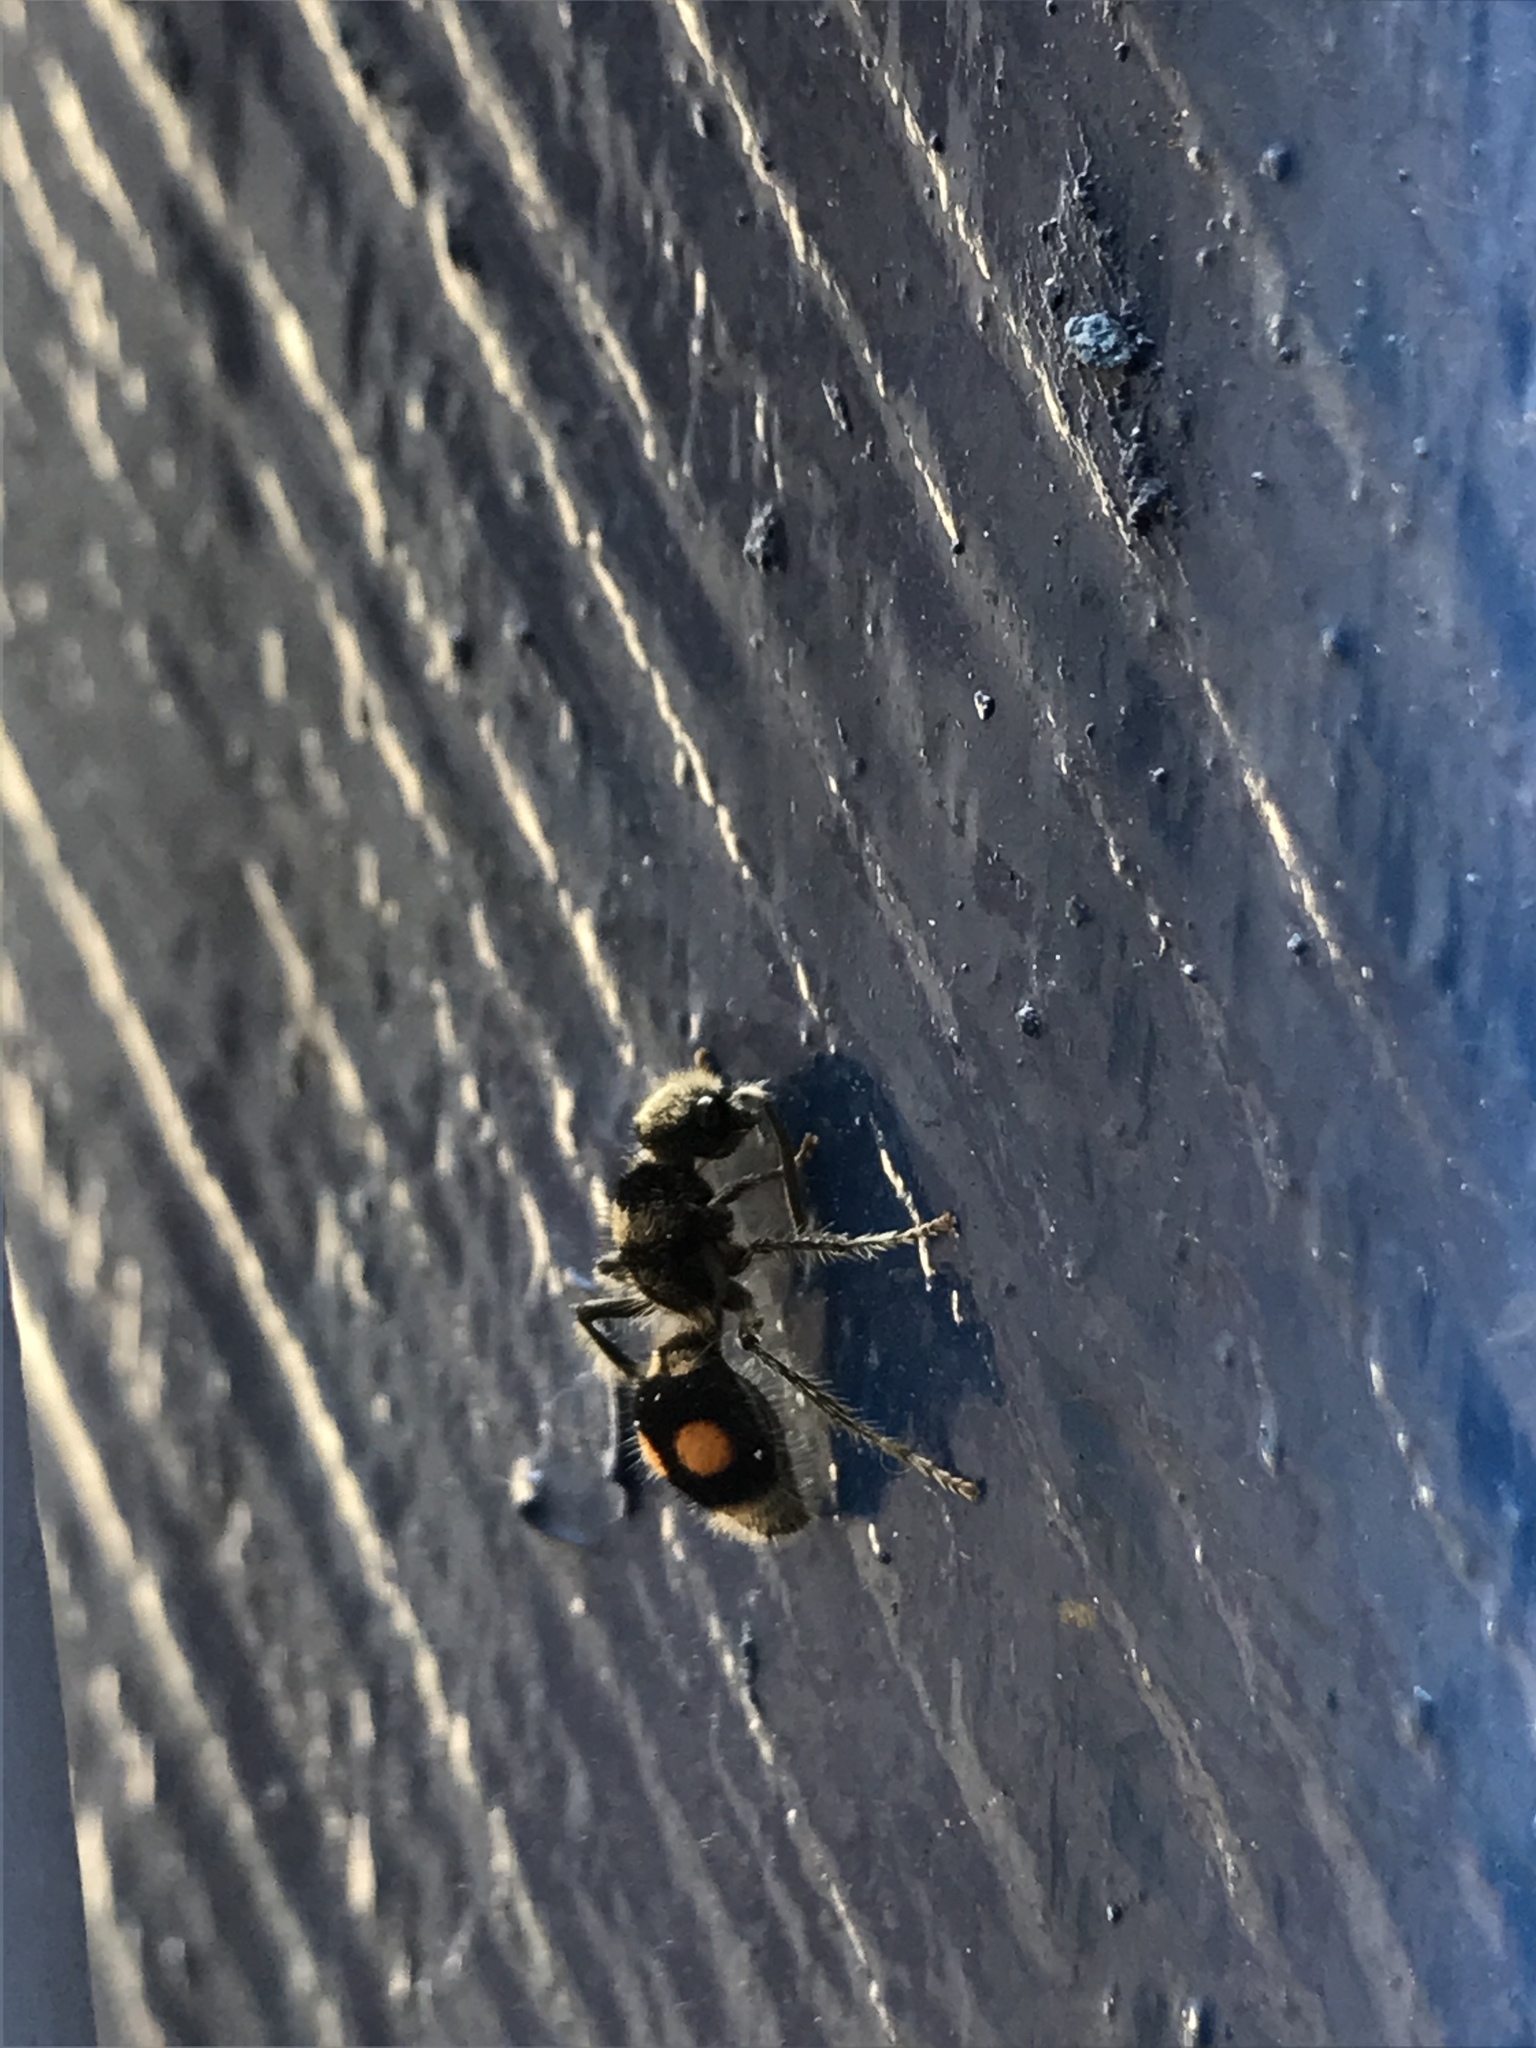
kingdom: Animalia
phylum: Arthropoda
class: Insecta
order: Hymenoptera
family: Mutillidae
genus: Hoplomutilla
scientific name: Hoplomutilla
